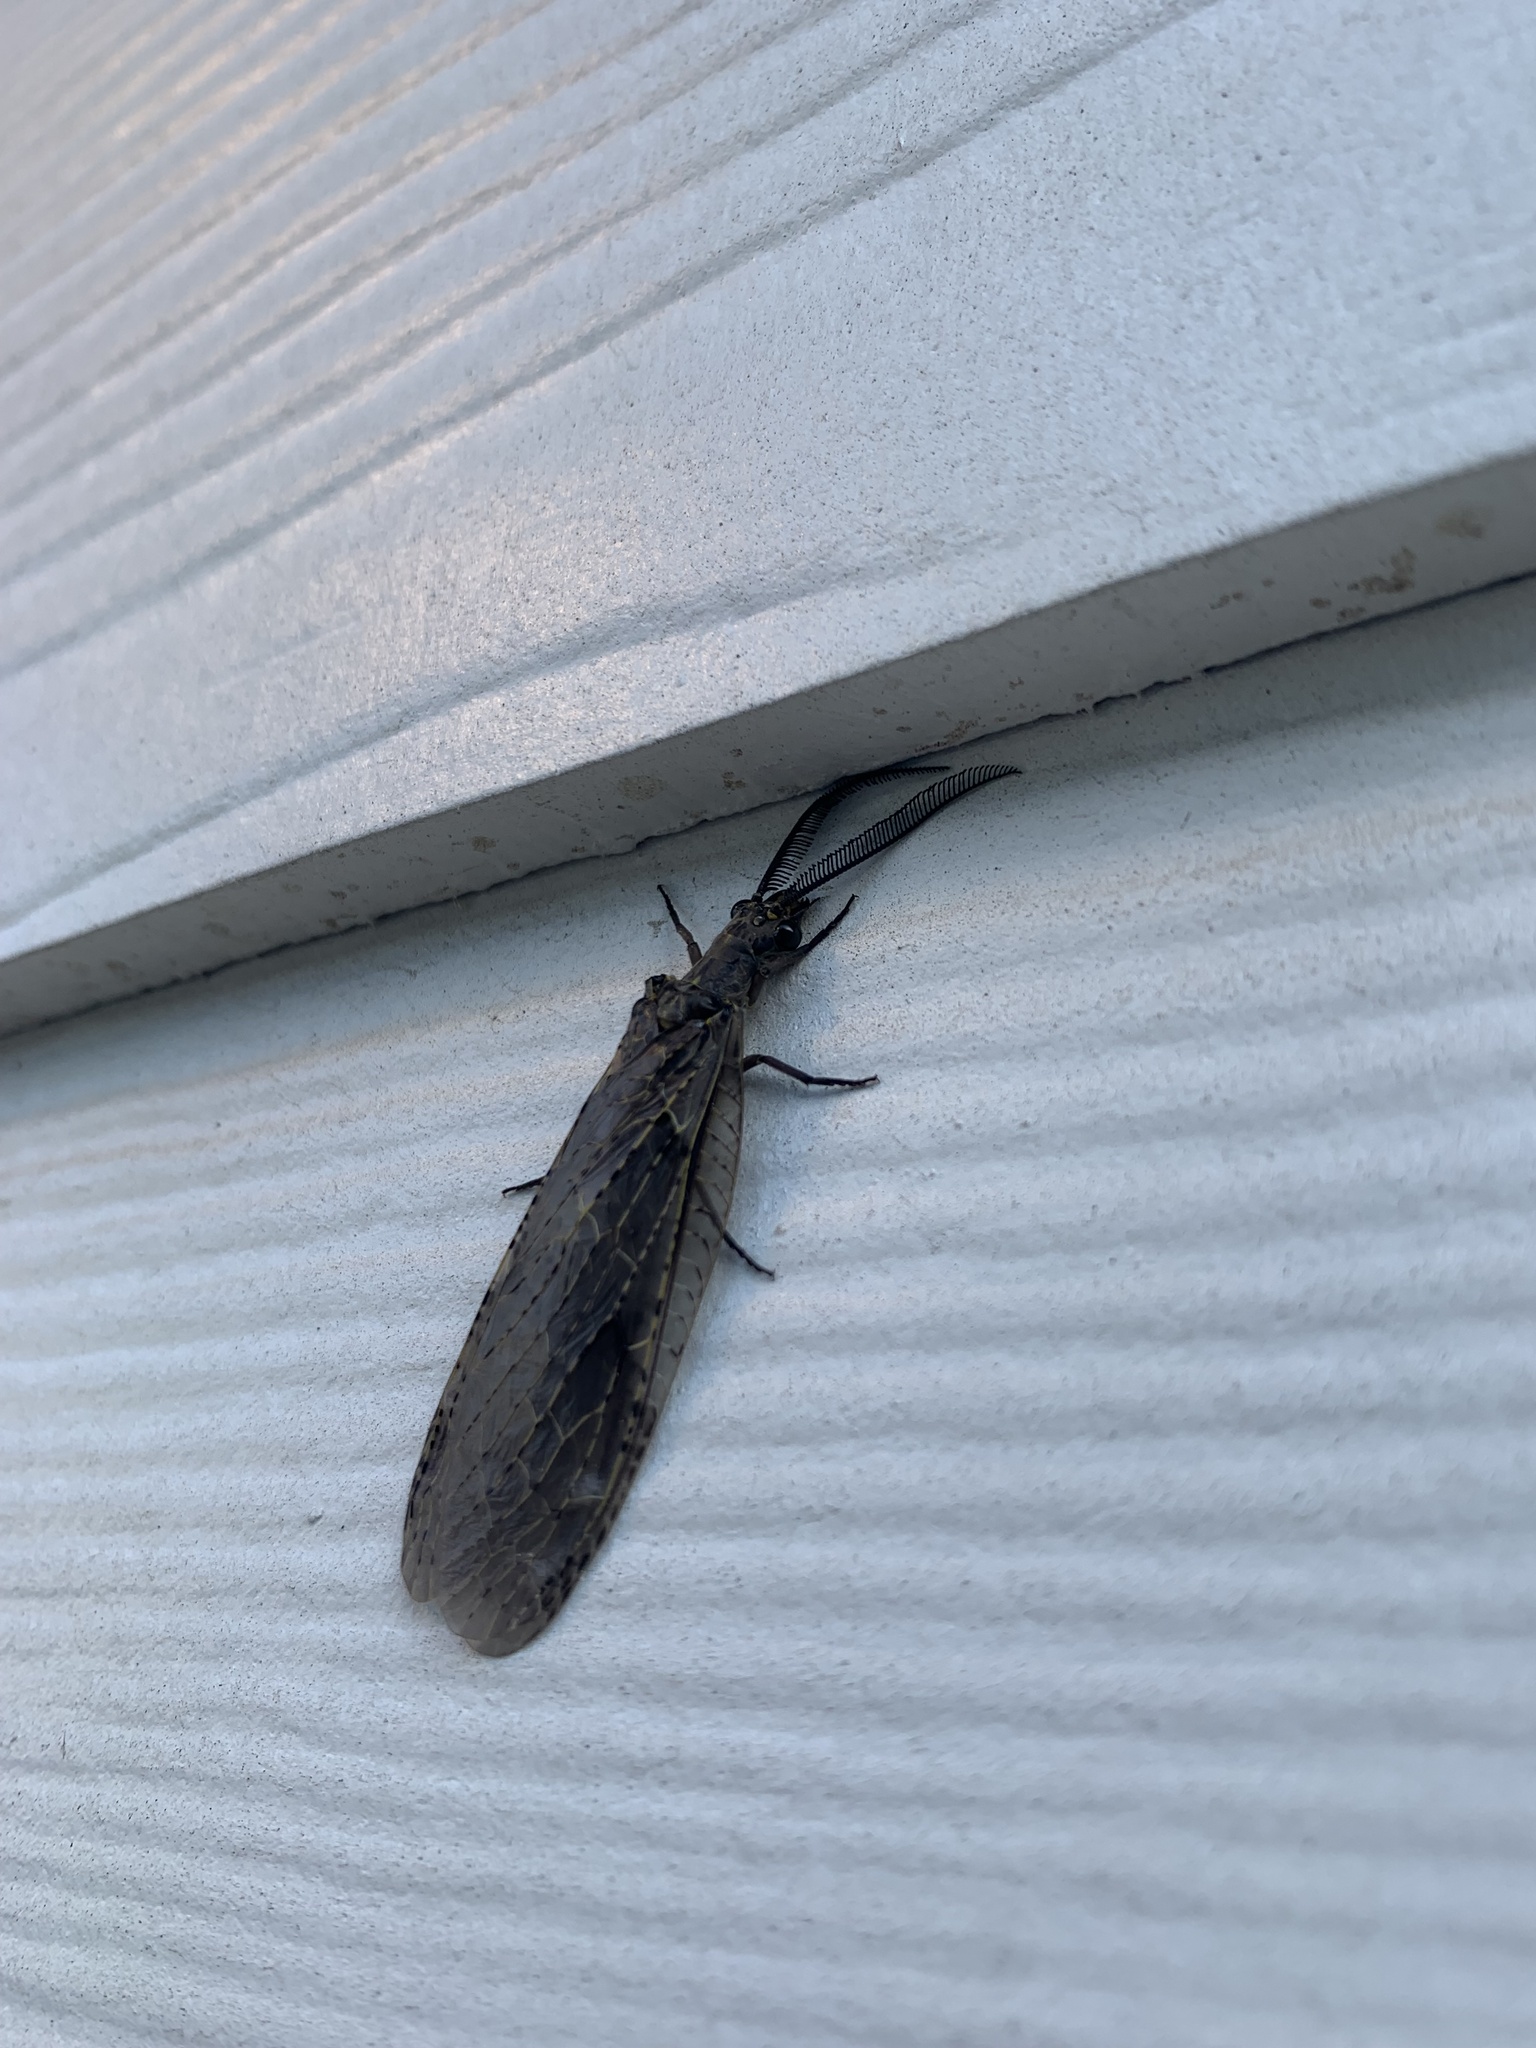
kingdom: Animalia
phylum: Arthropoda
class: Insecta
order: Megaloptera
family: Corydalidae
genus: Chauliodes
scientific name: Chauliodes rastricornis
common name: Spring fishfly
